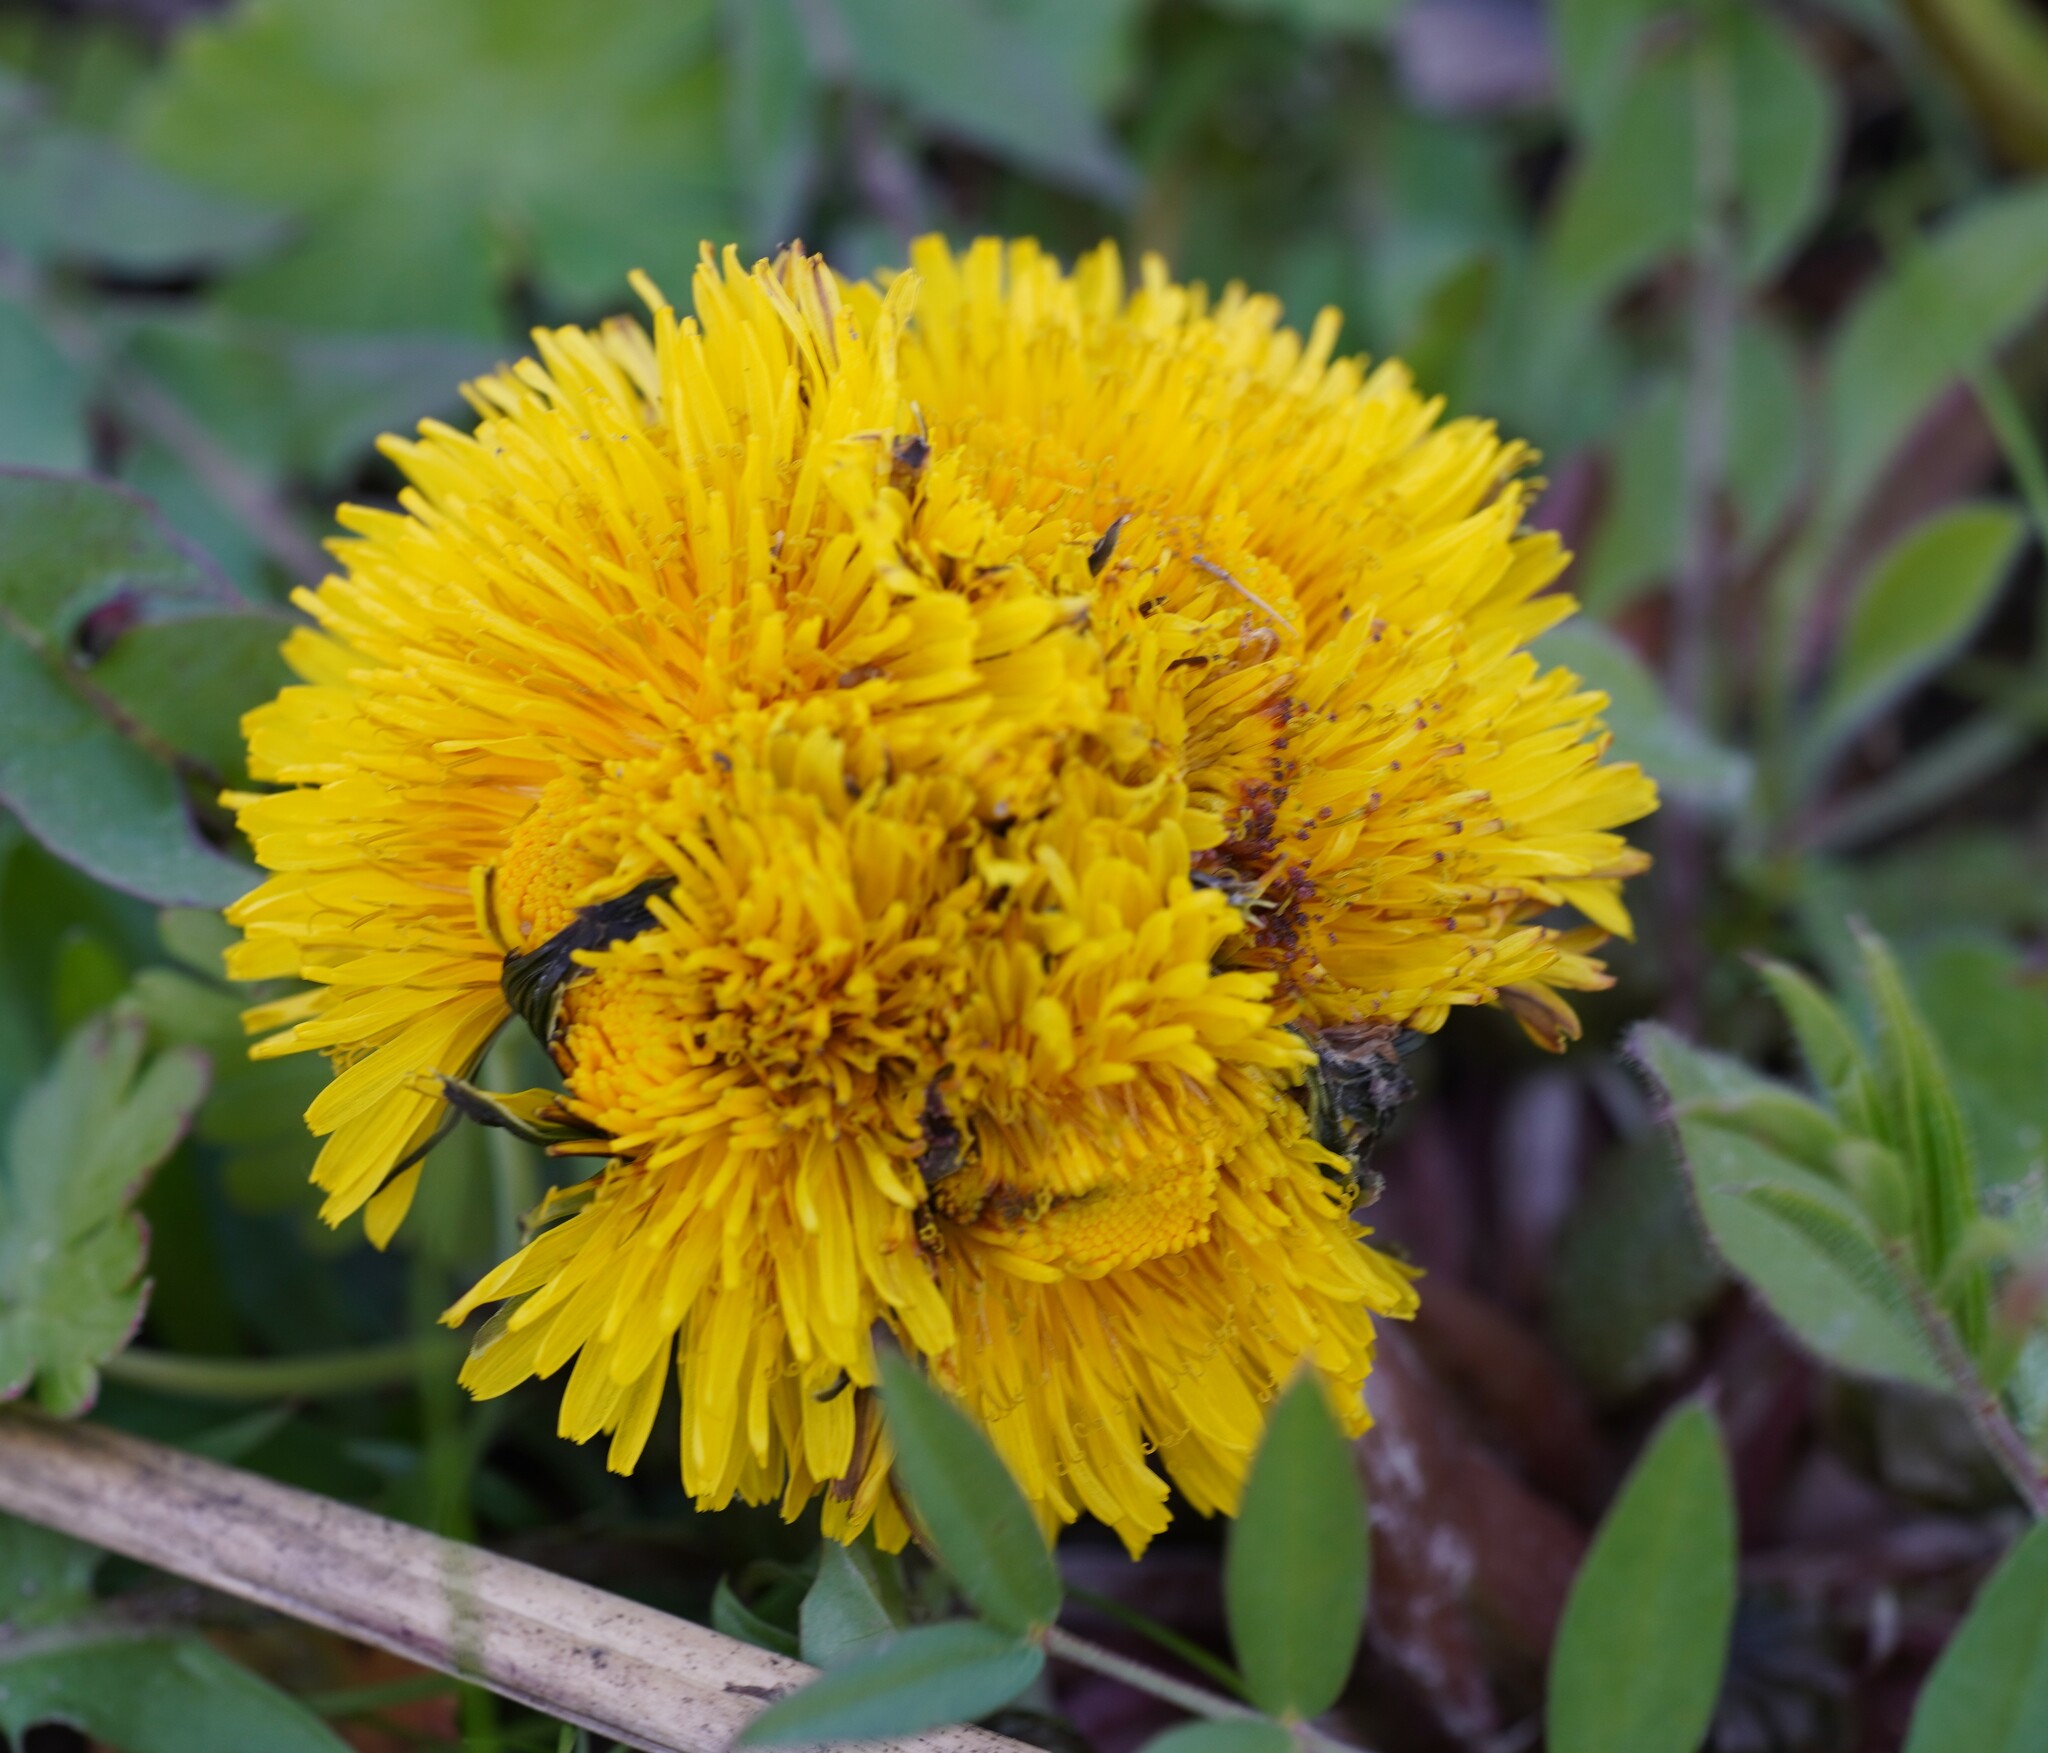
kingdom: Plantae
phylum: Tracheophyta
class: Magnoliopsida
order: Asterales
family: Asteraceae
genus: Taraxacum
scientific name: Taraxacum
